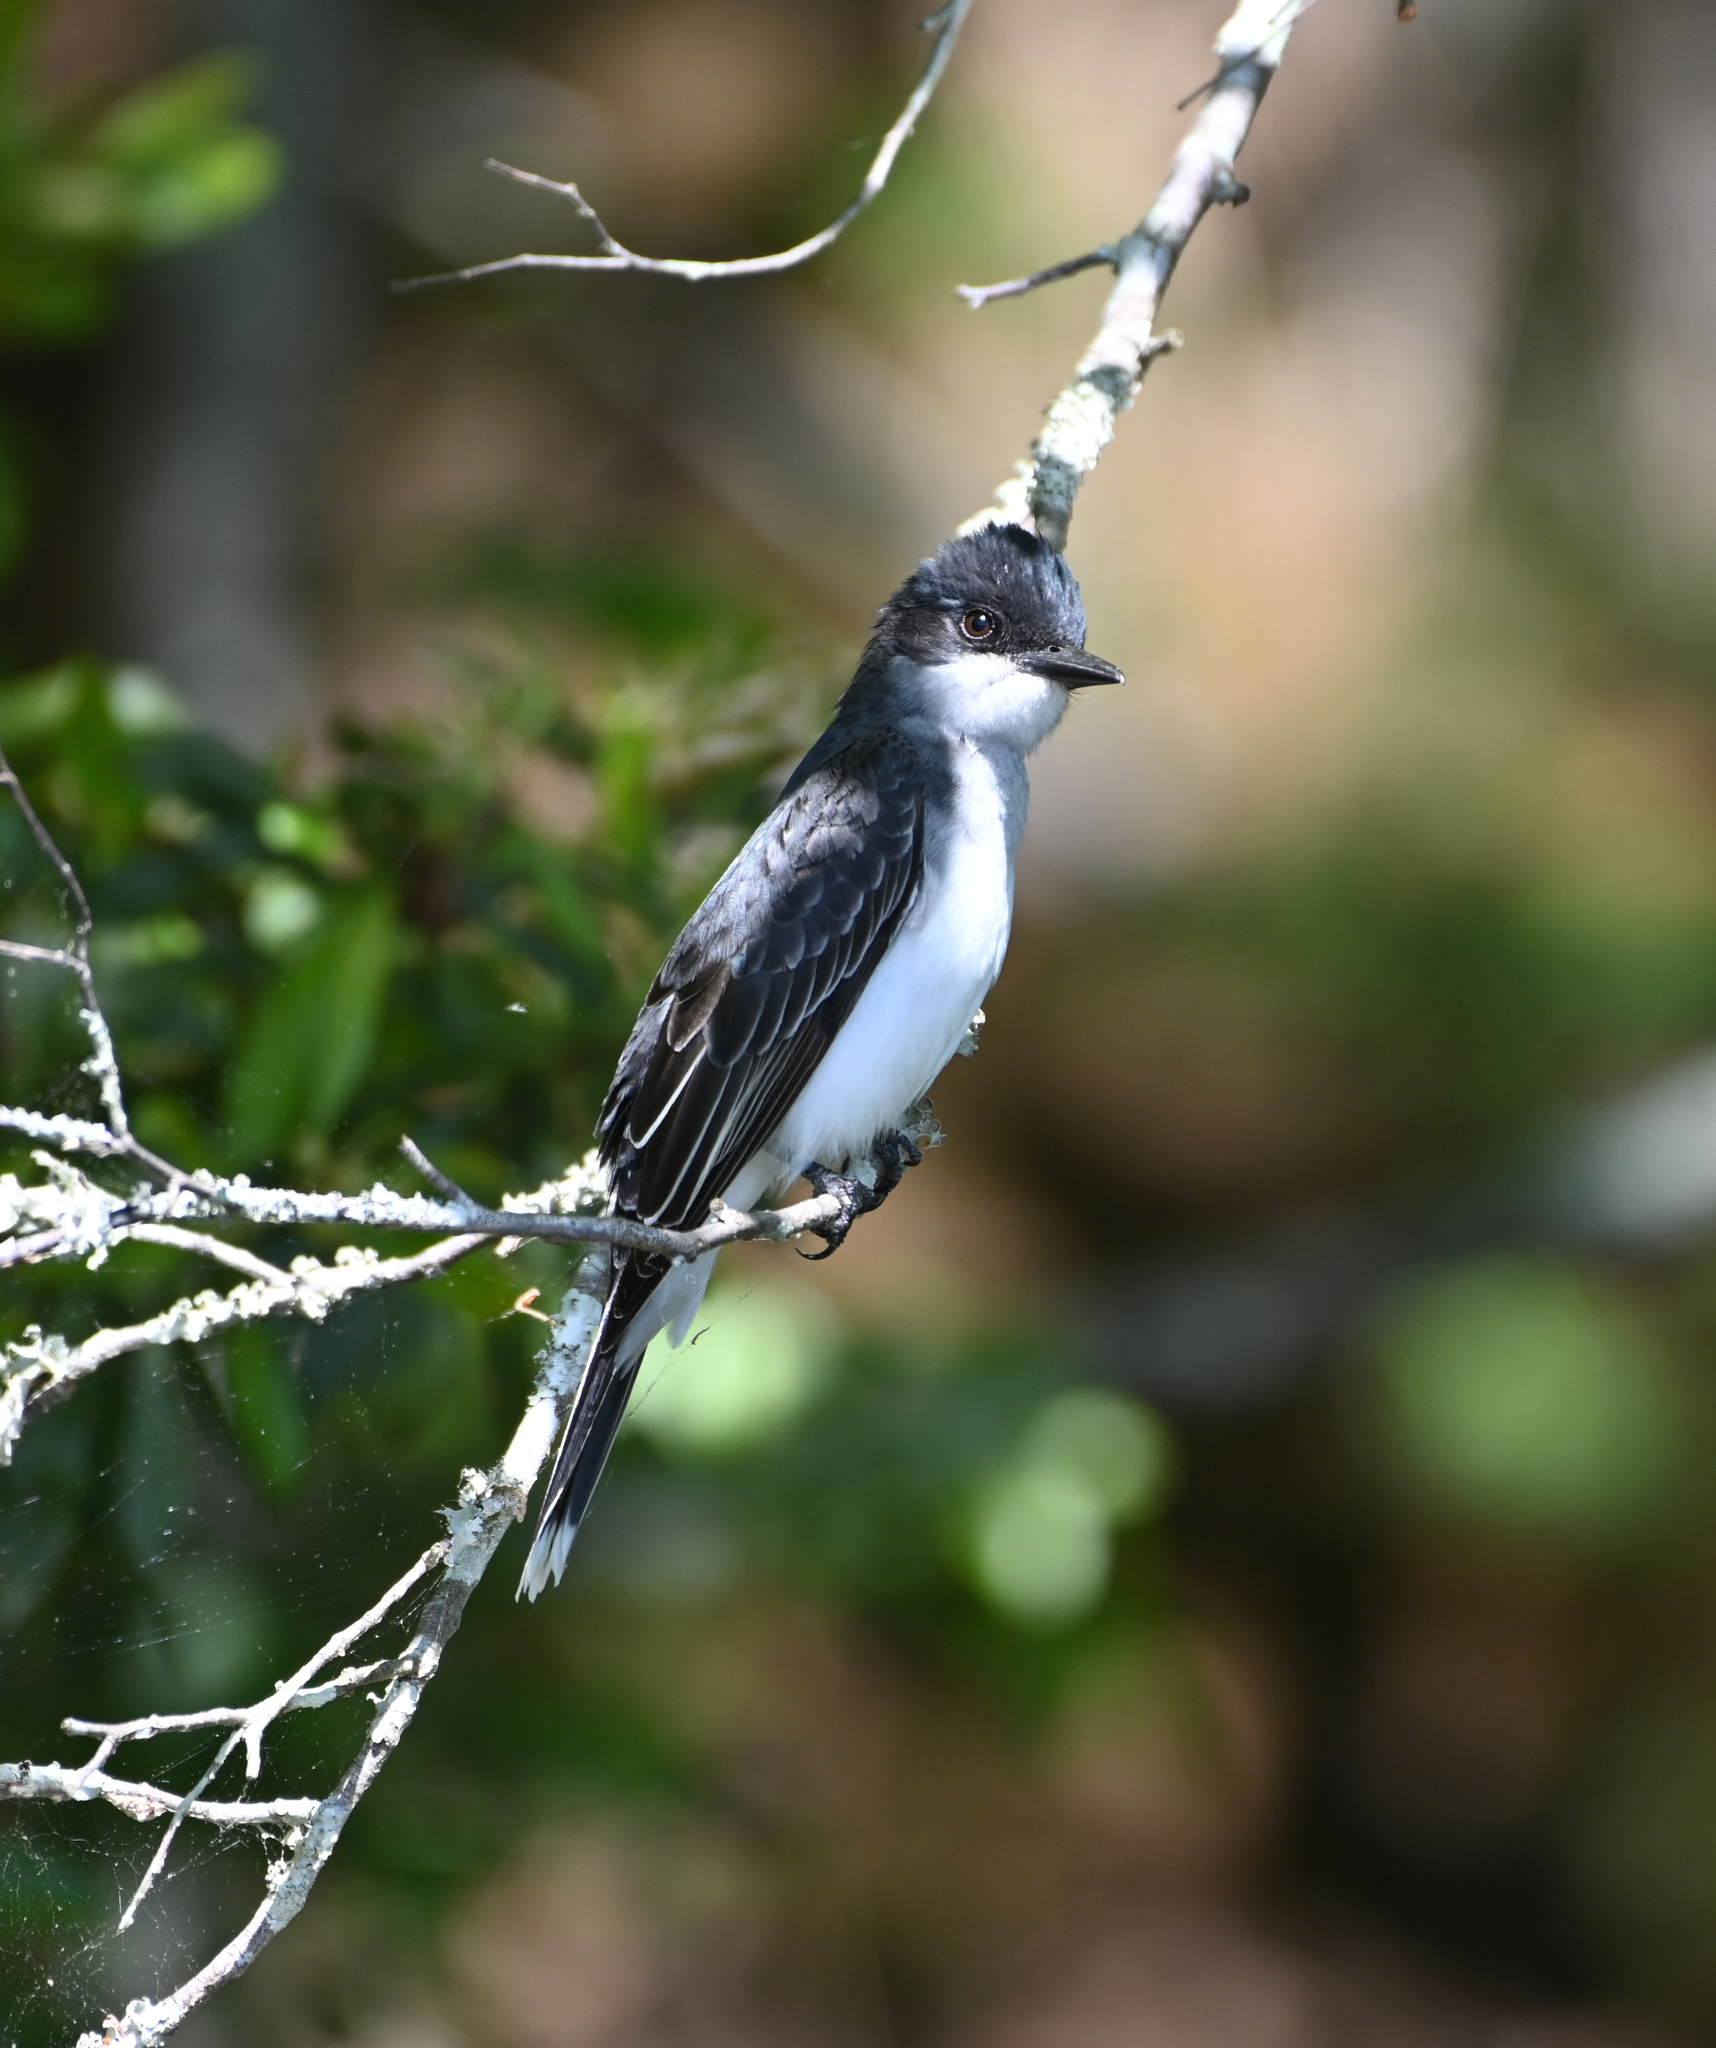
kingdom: Animalia
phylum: Chordata
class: Aves
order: Passeriformes
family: Tyrannidae
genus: Tyrannus
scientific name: Tyrannus tyrannus
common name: Eastern kingbird
